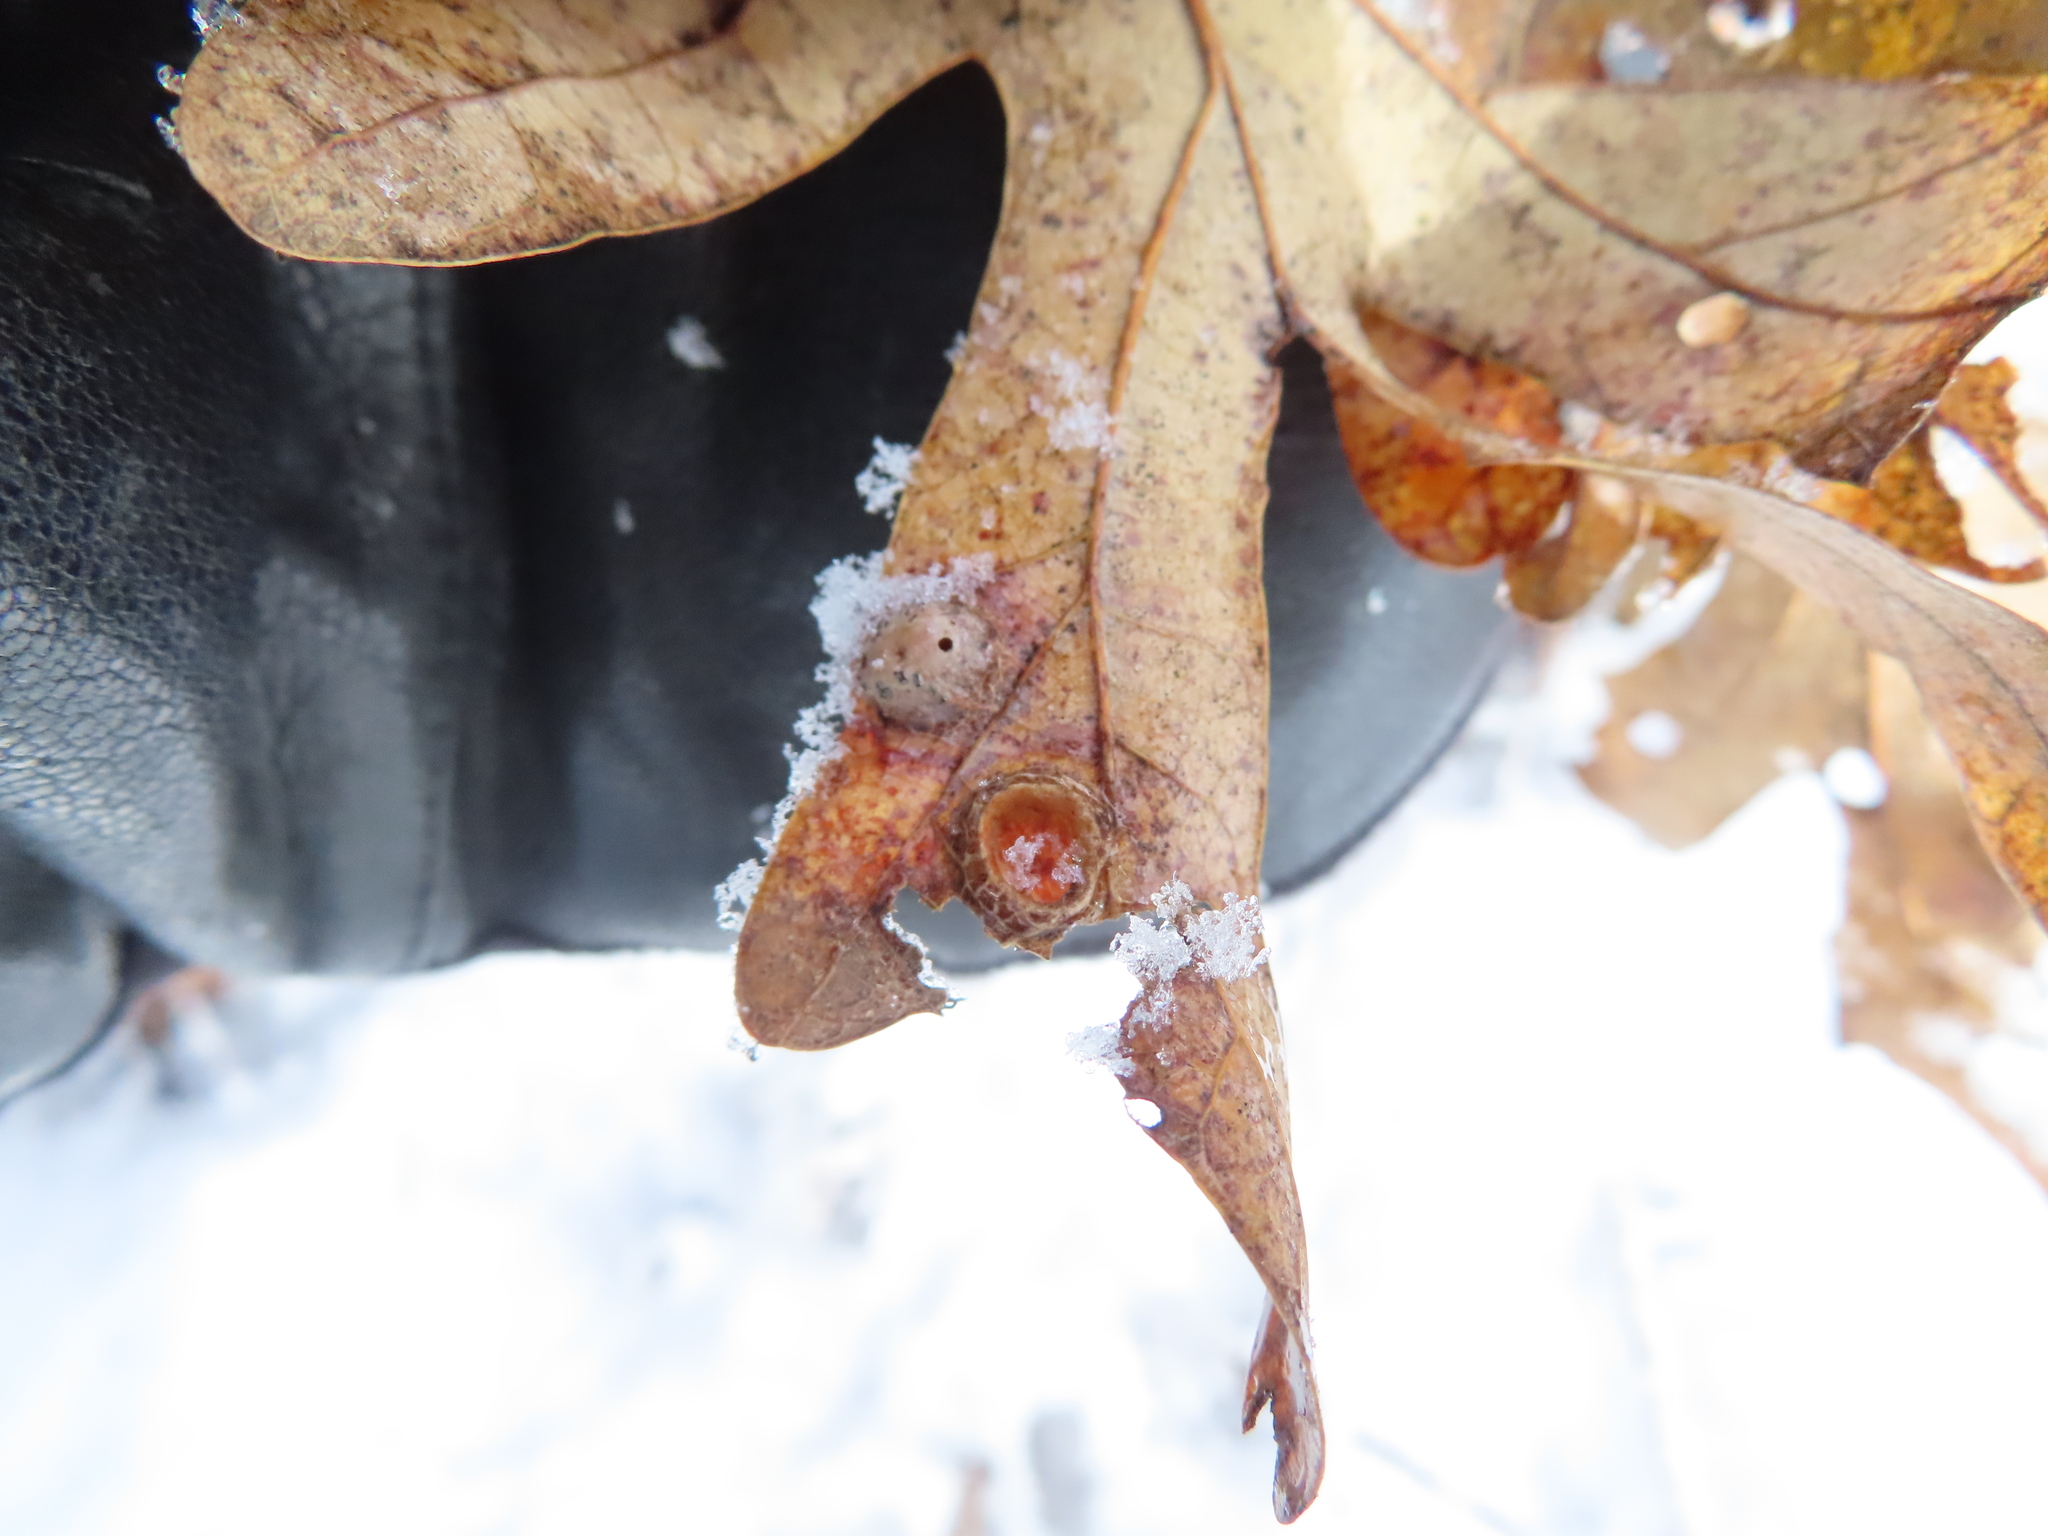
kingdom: Animalia
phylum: Arthropoda
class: Insecta
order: Hymenoptera
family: Cynipidae
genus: Callirhytis
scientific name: Callirhytis
